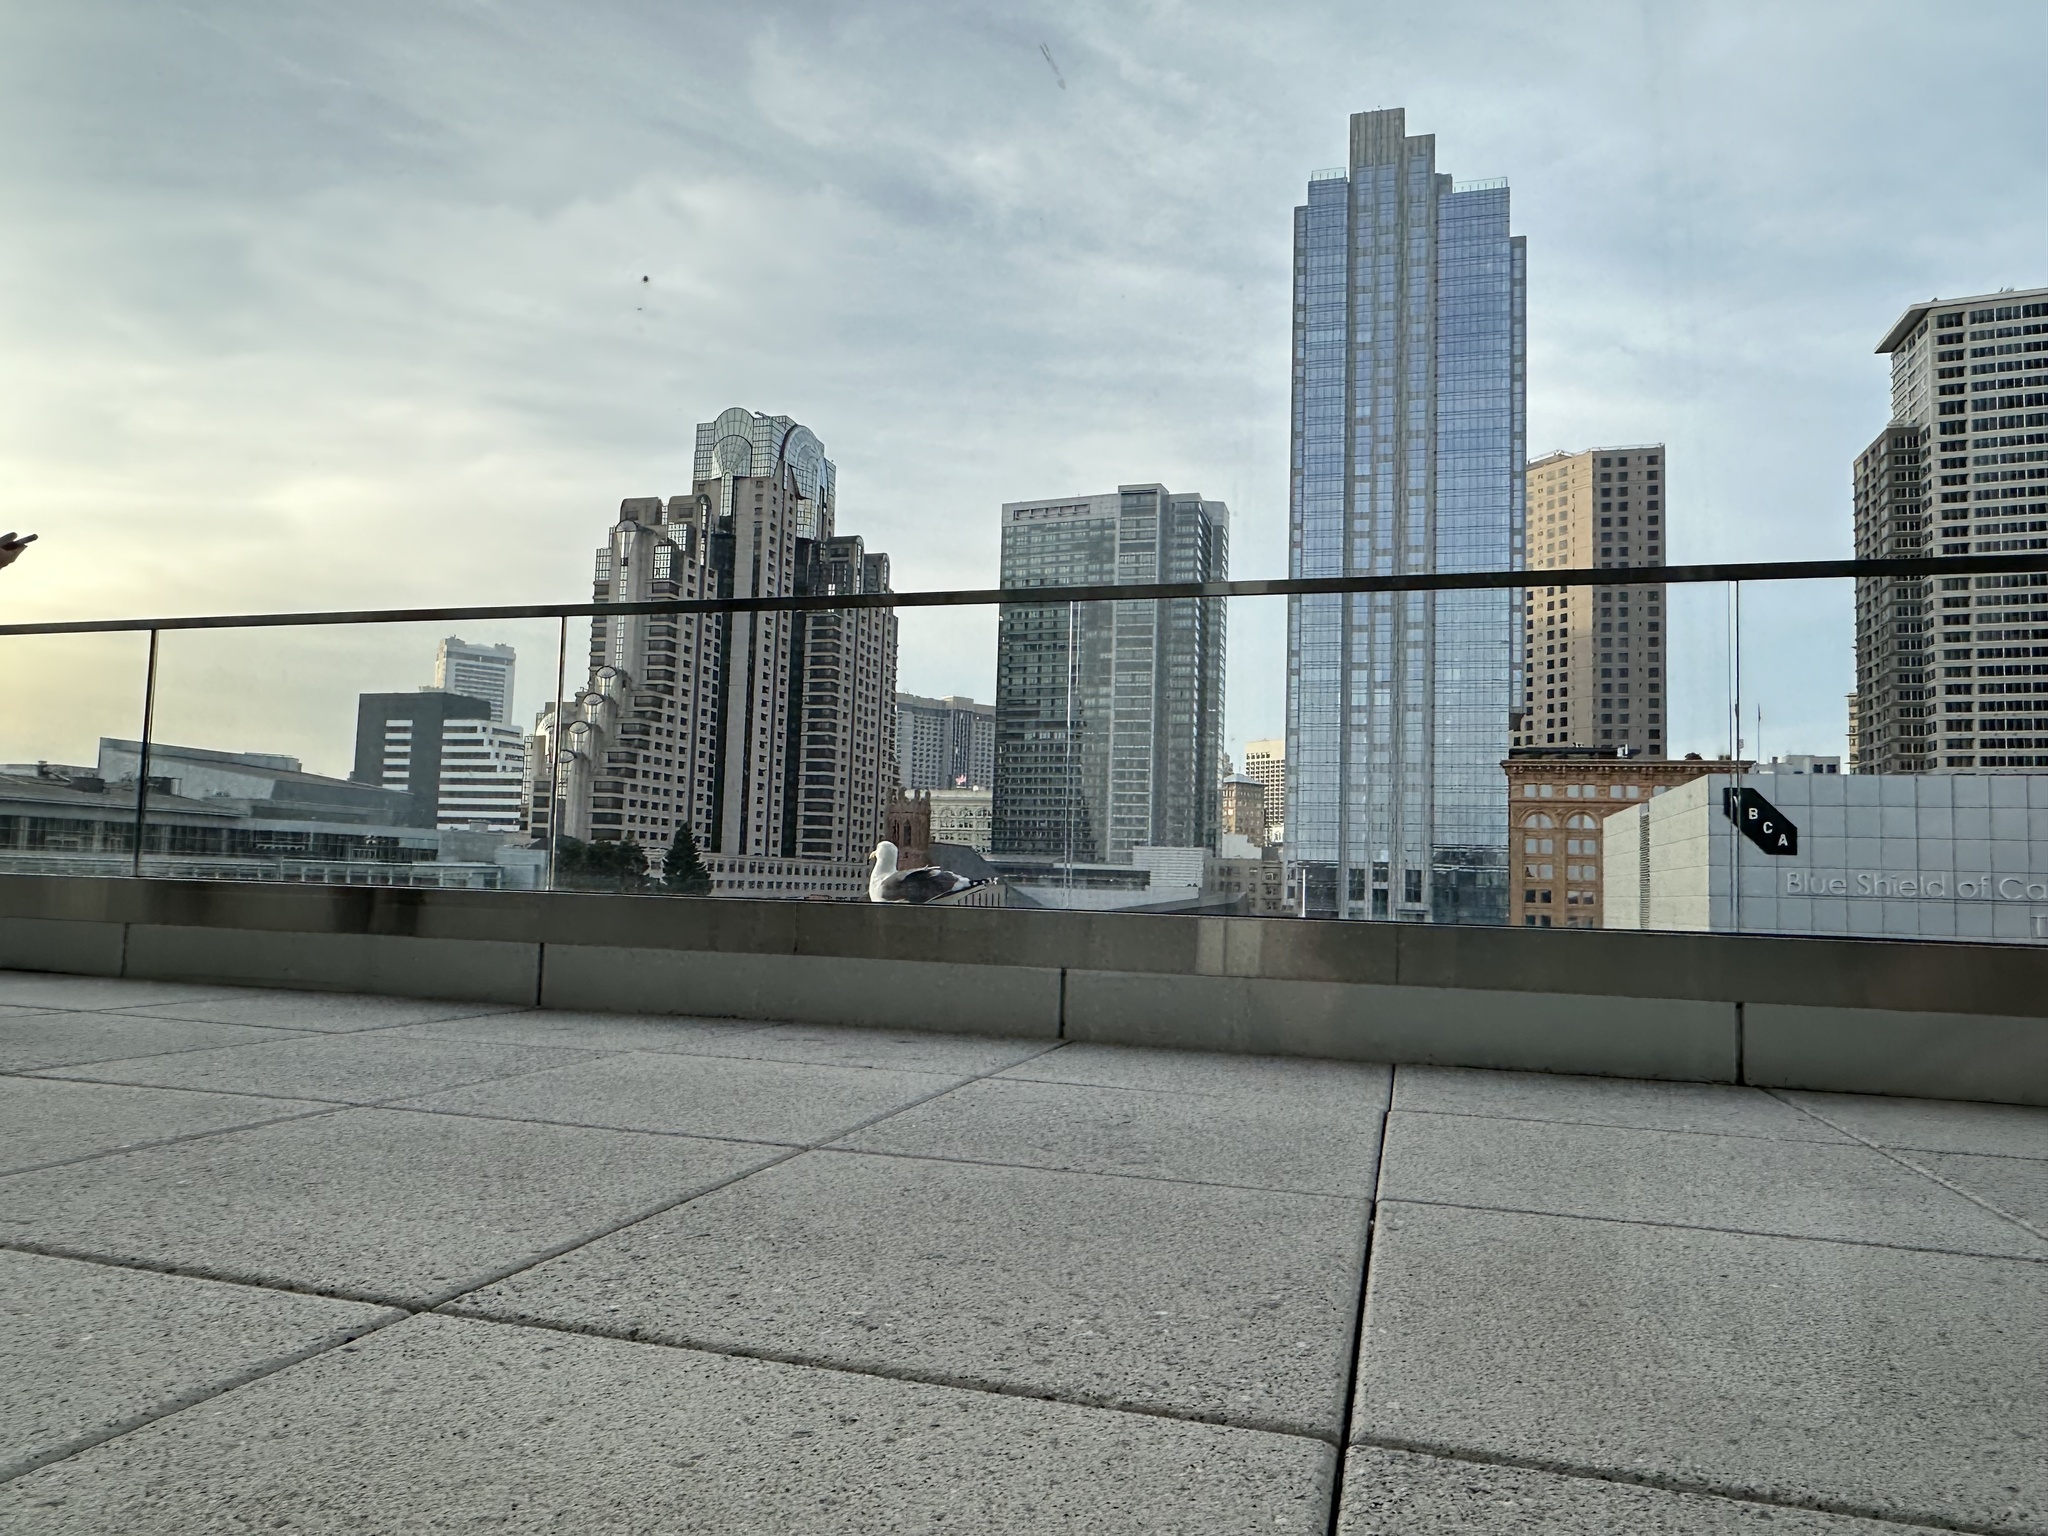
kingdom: Animalia
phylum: Chordata
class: Aves
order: Charadriiformes
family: Laridae
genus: Larus
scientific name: Larus occidentalis
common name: Western gull
